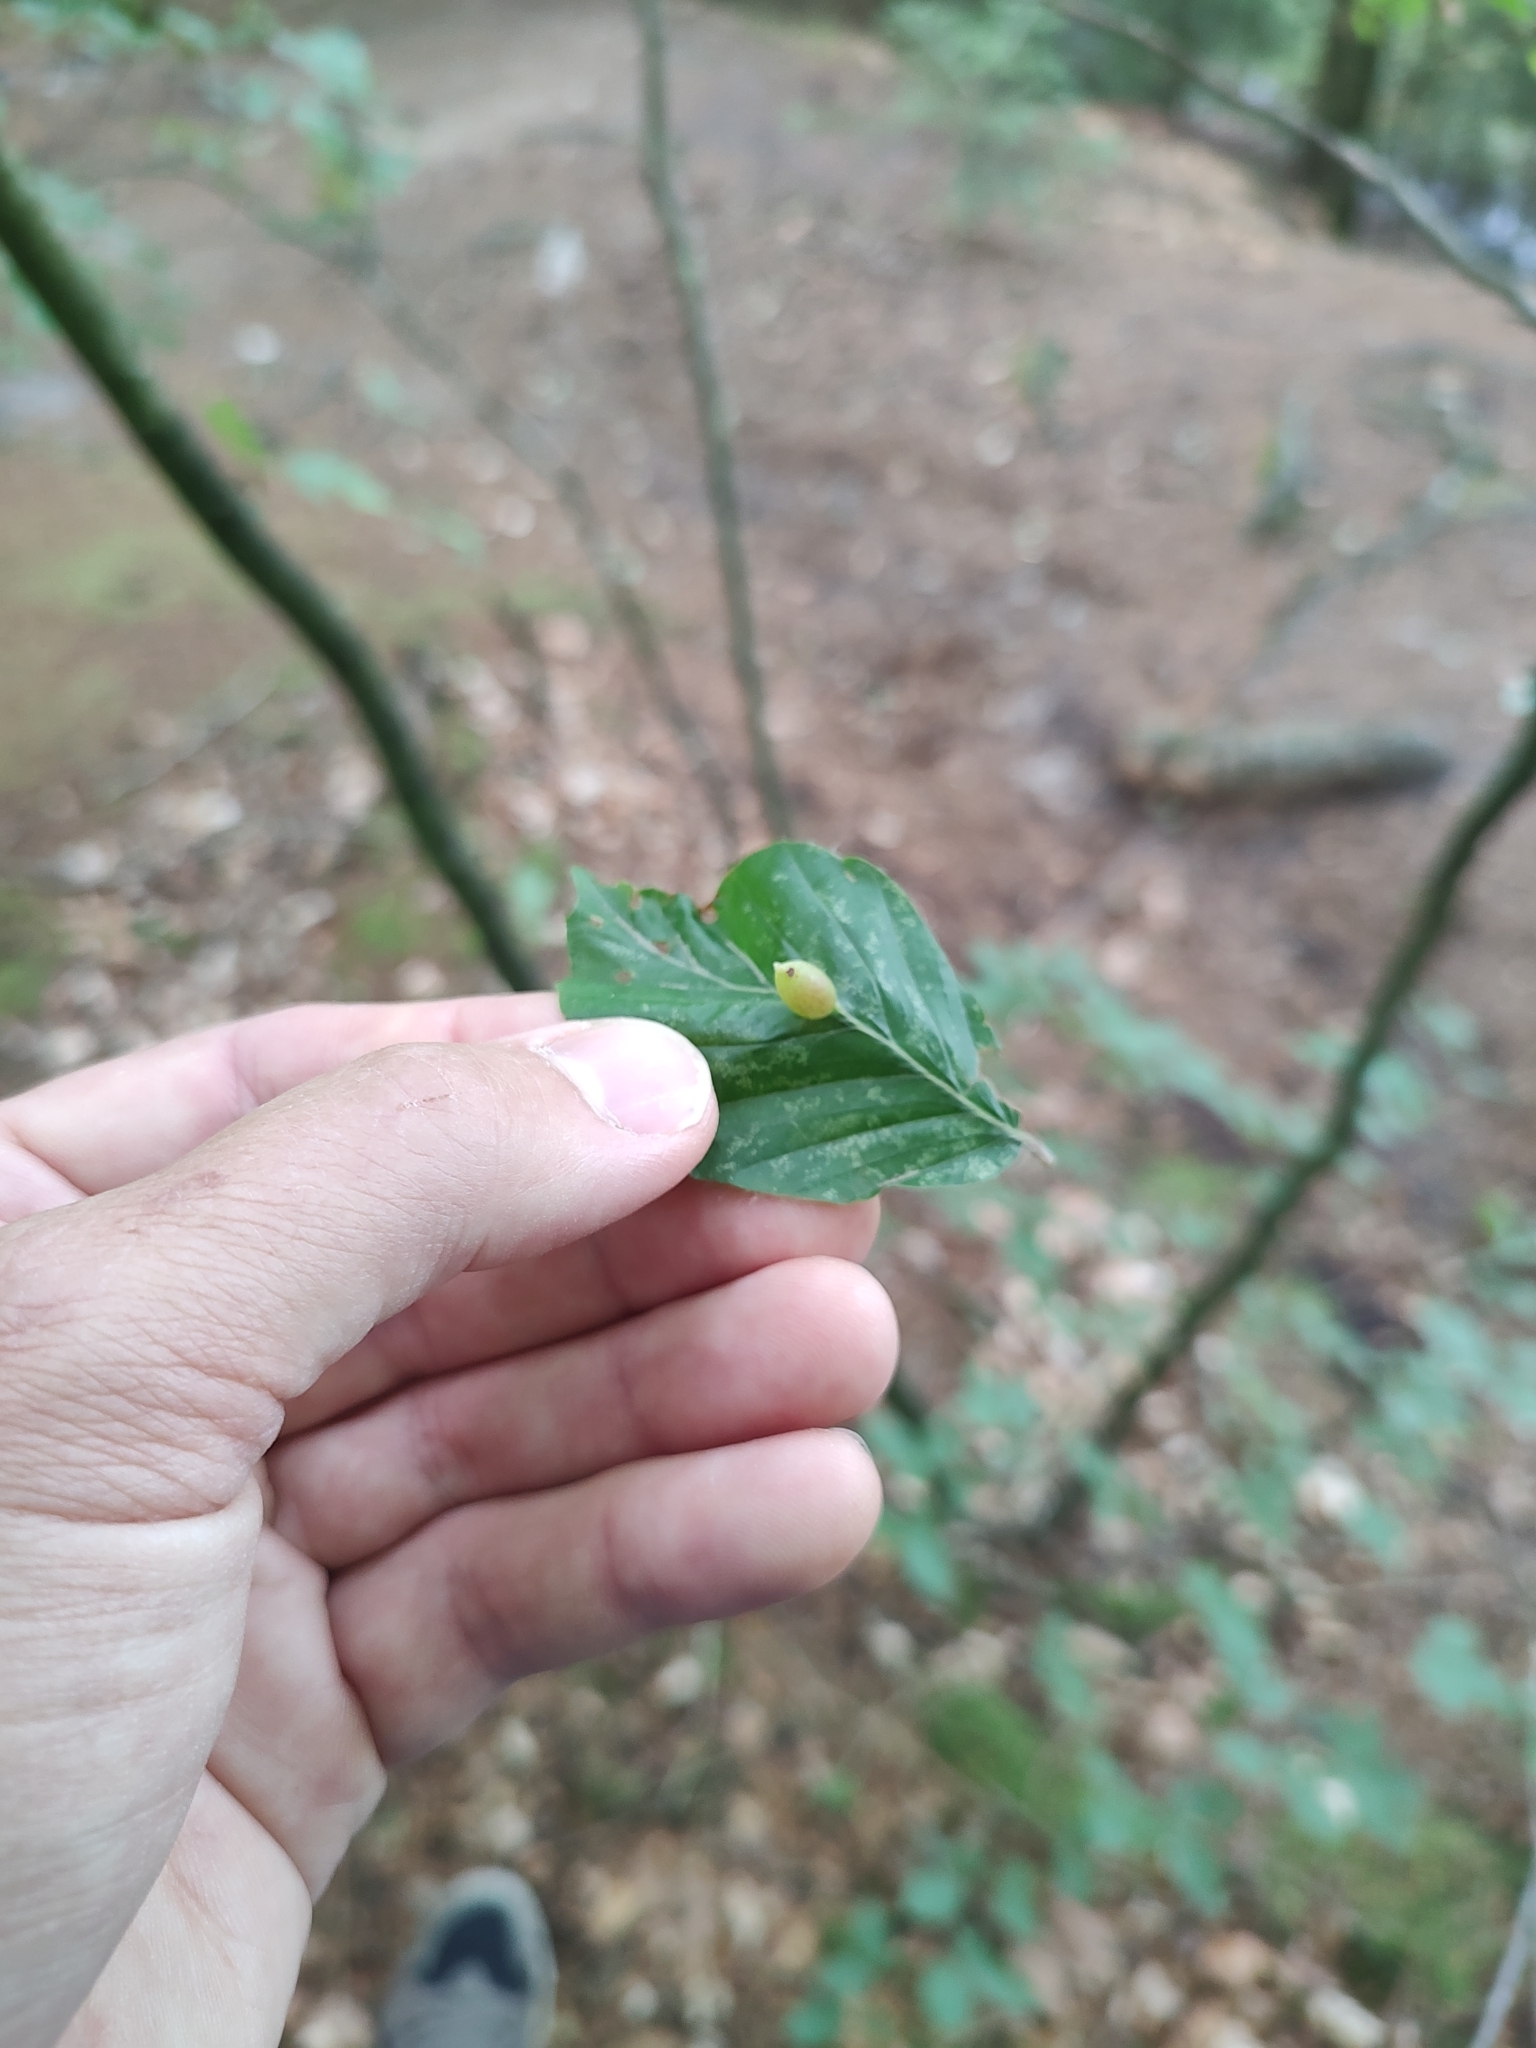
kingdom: Animalia
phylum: Arthropoda
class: Insecta
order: Diptera
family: Cecidomyiidae
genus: Mikiola
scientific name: Mikiola fagi
